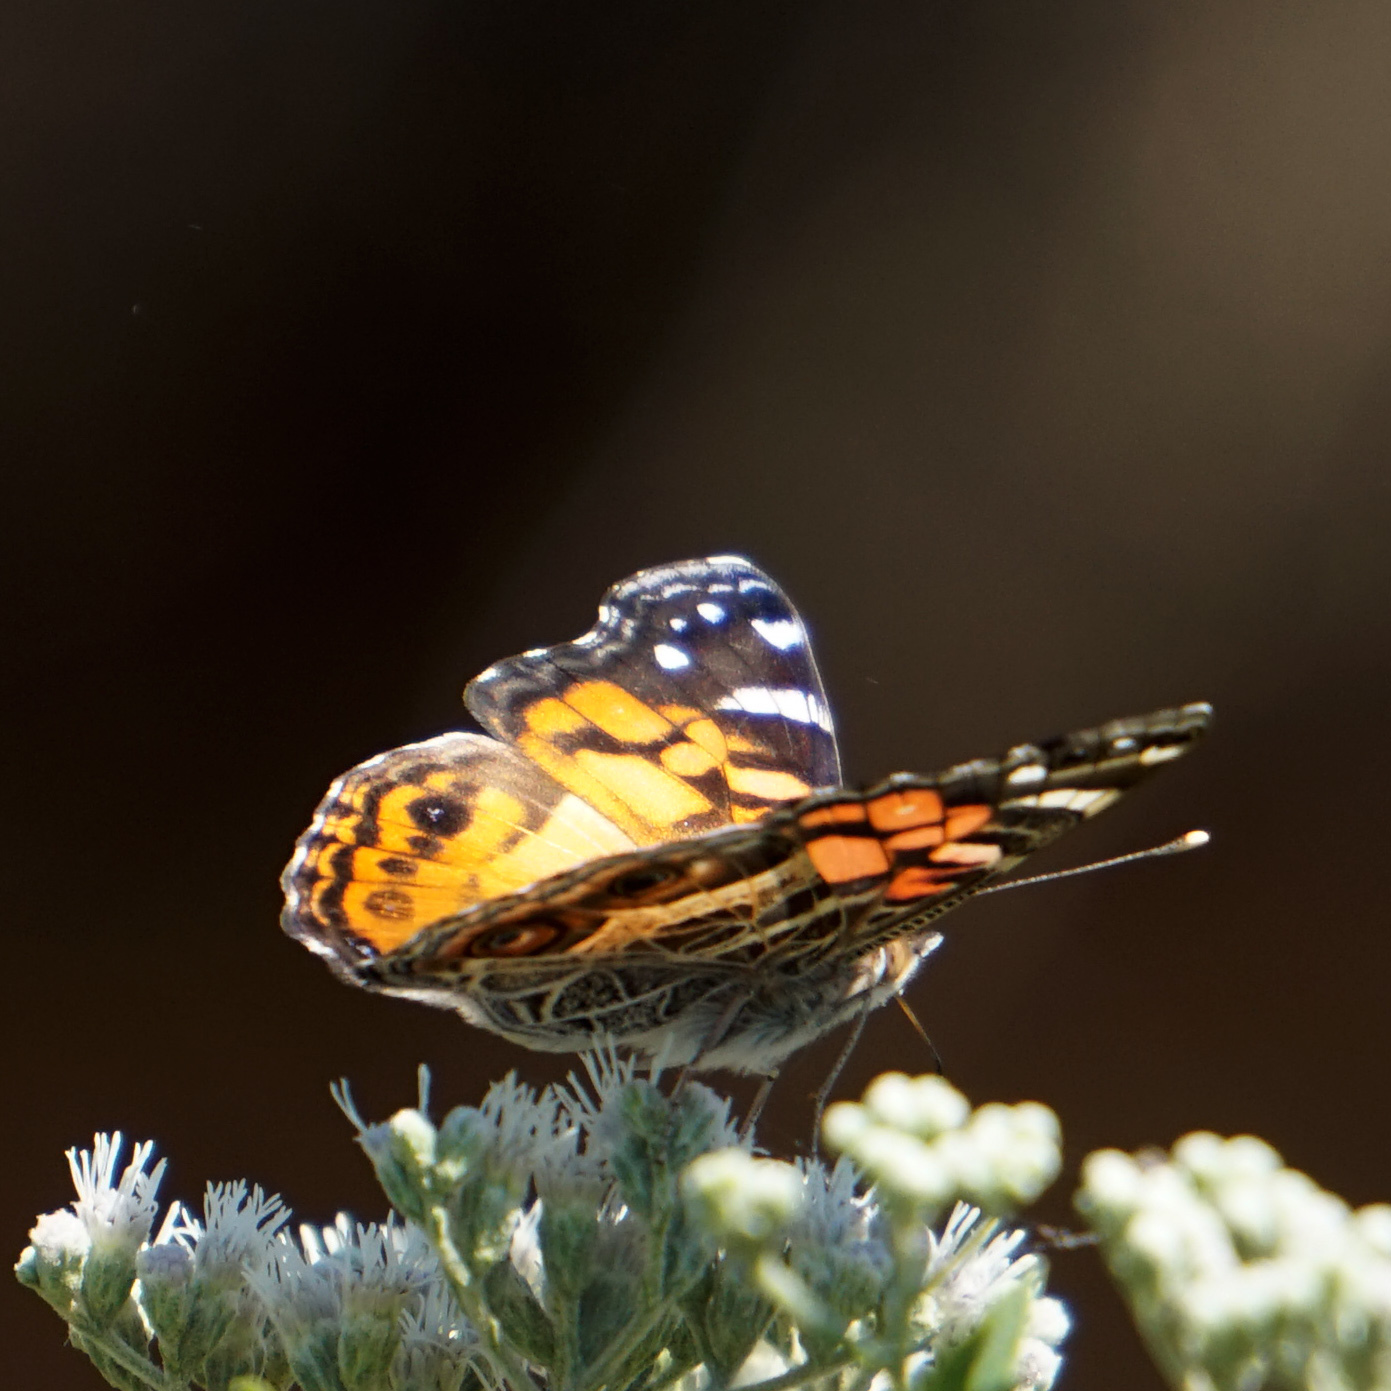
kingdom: Animalia
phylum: Arthropoda
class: Insecta
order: Lepidoptera
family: Nymphalidae
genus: Vanessa
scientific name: Vanessa virginiensis
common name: American lady
